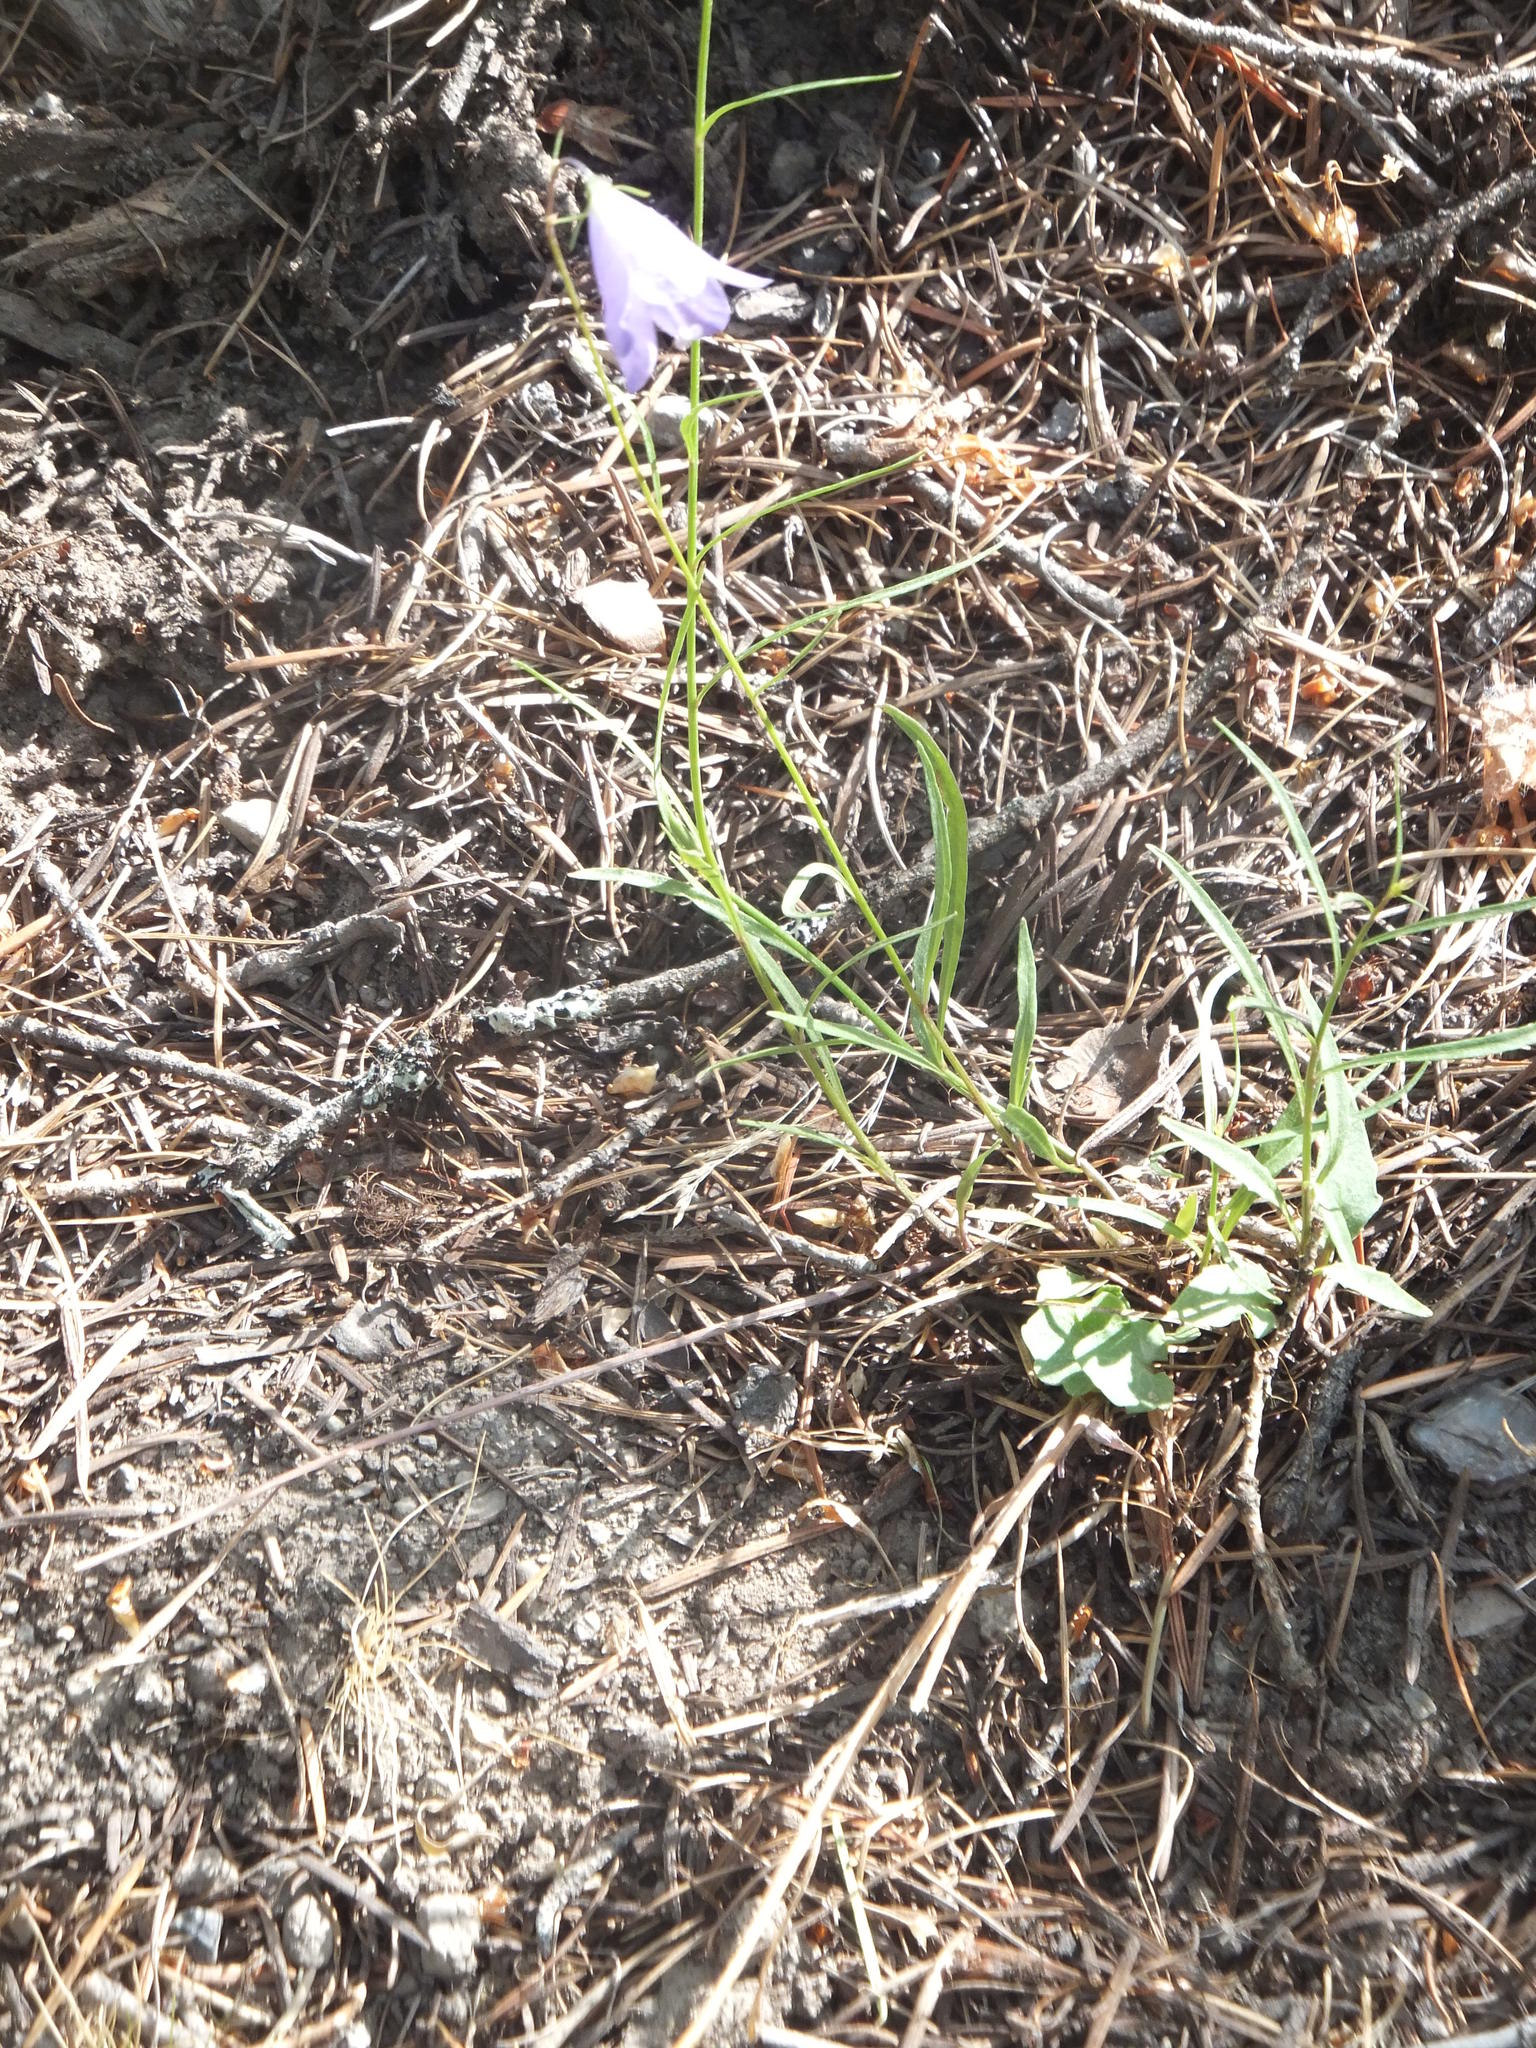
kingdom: Plantae
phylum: Tracheophyta
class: Magnoliopsida
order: Asterales
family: Campanulaceae
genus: Campanula
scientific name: Campanula alaskana
